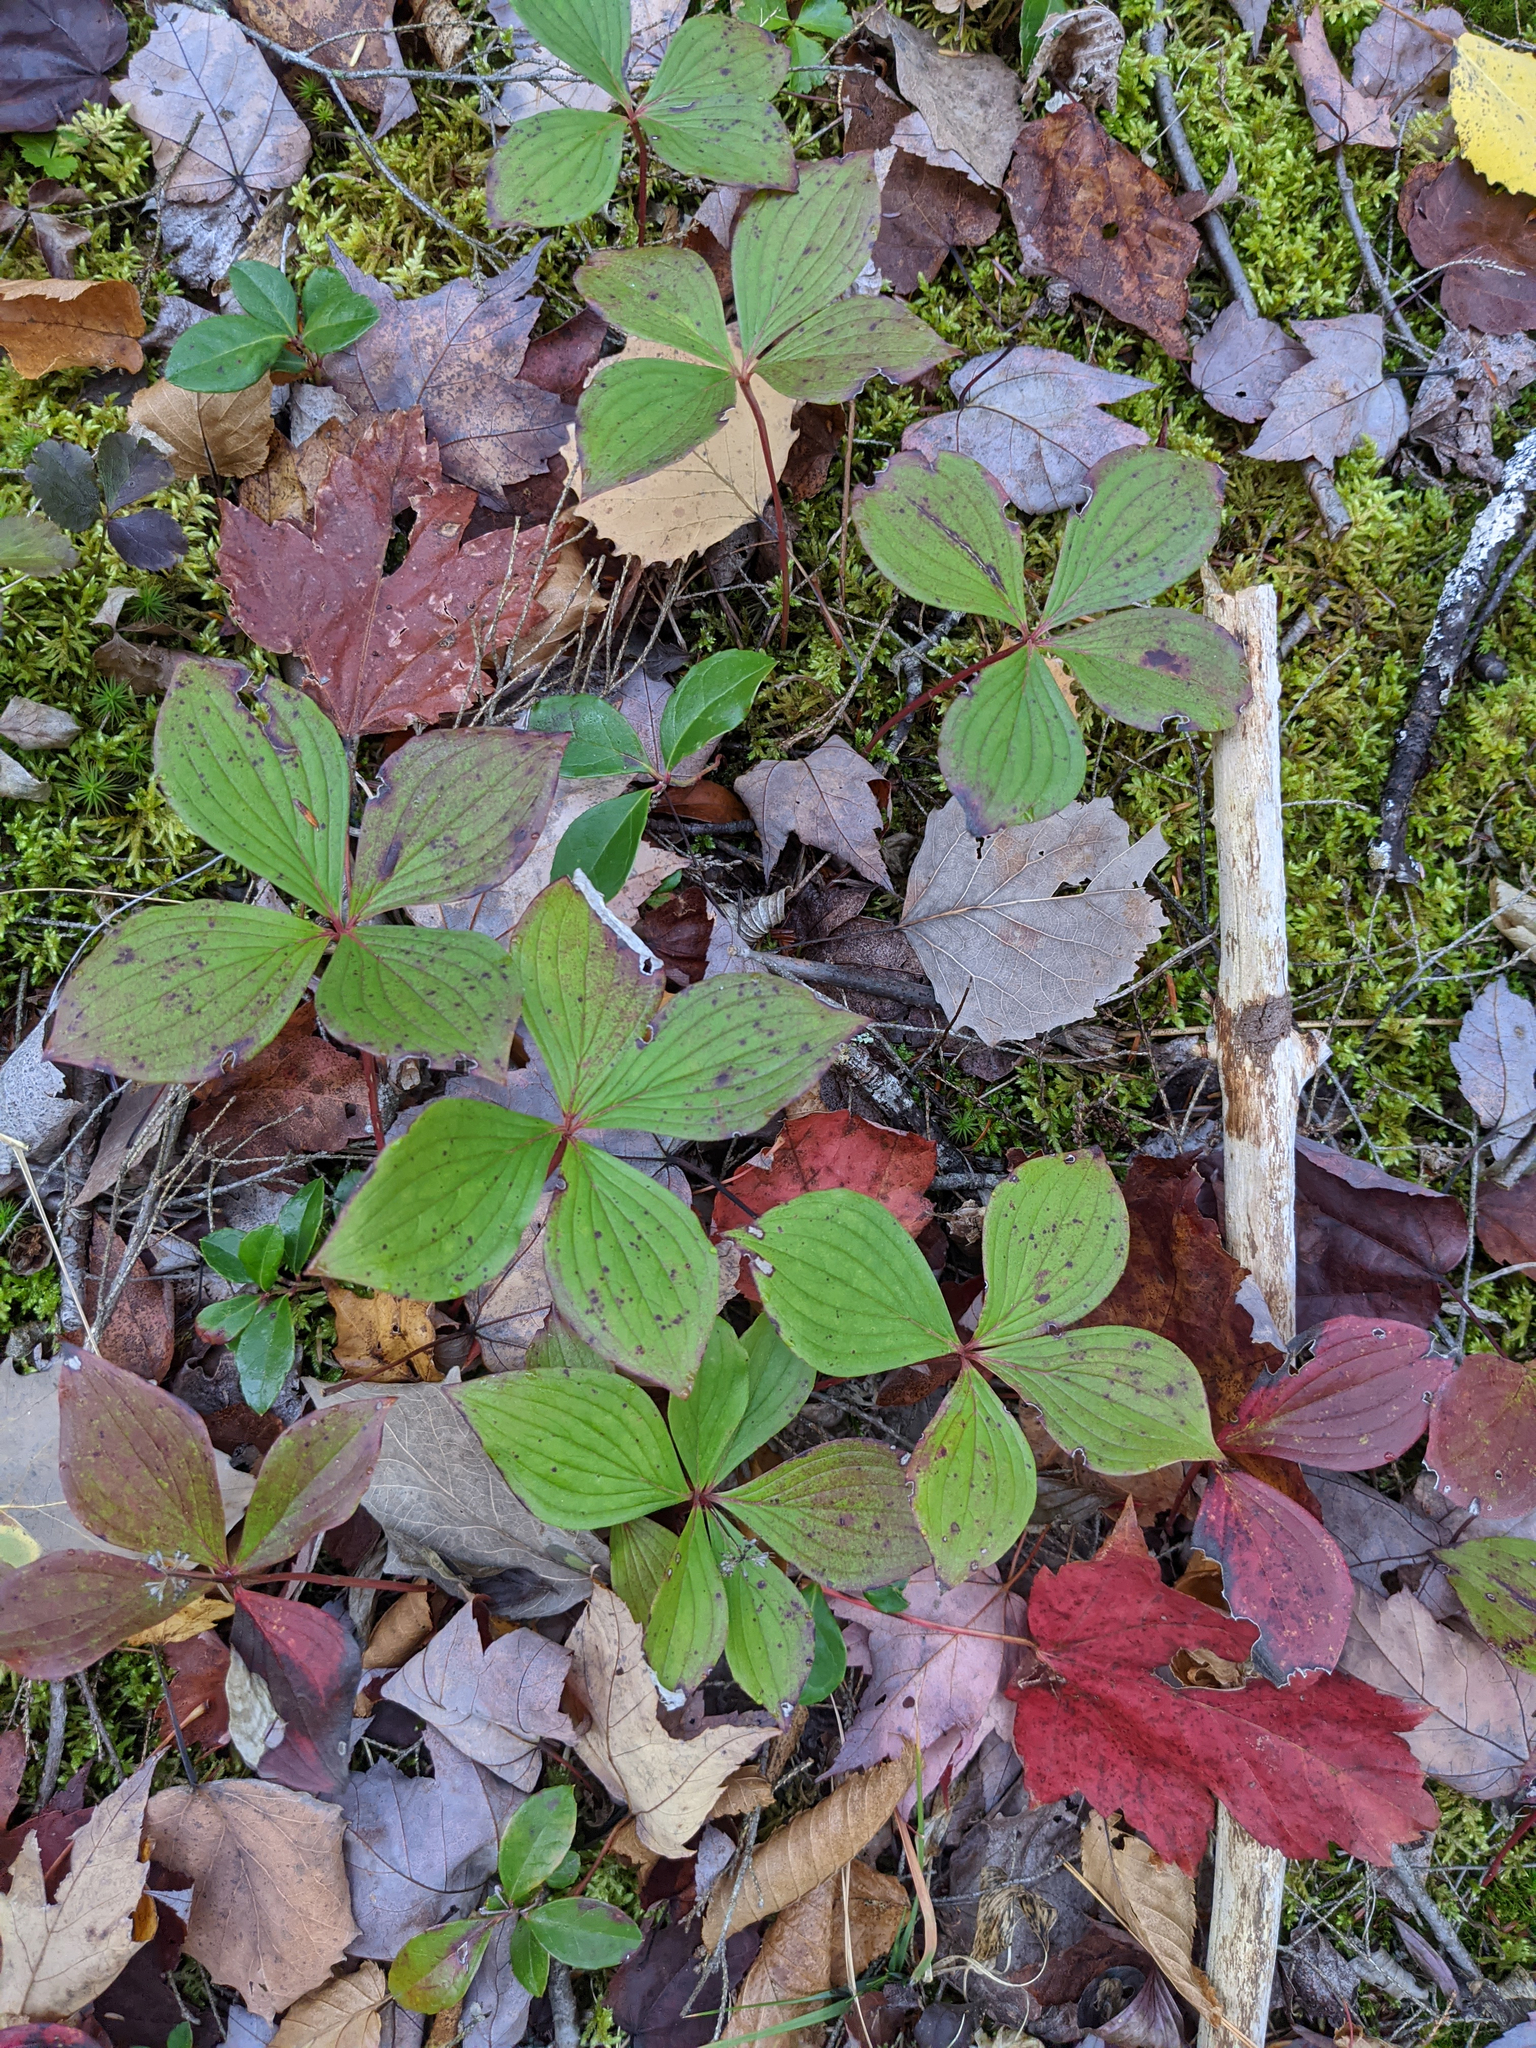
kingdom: Plantae
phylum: Tracheophyta
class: Magnoliopsida
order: Cornales
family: Cornaceae
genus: Cornus
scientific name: Cornus canadensis
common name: Creeping dogwood
